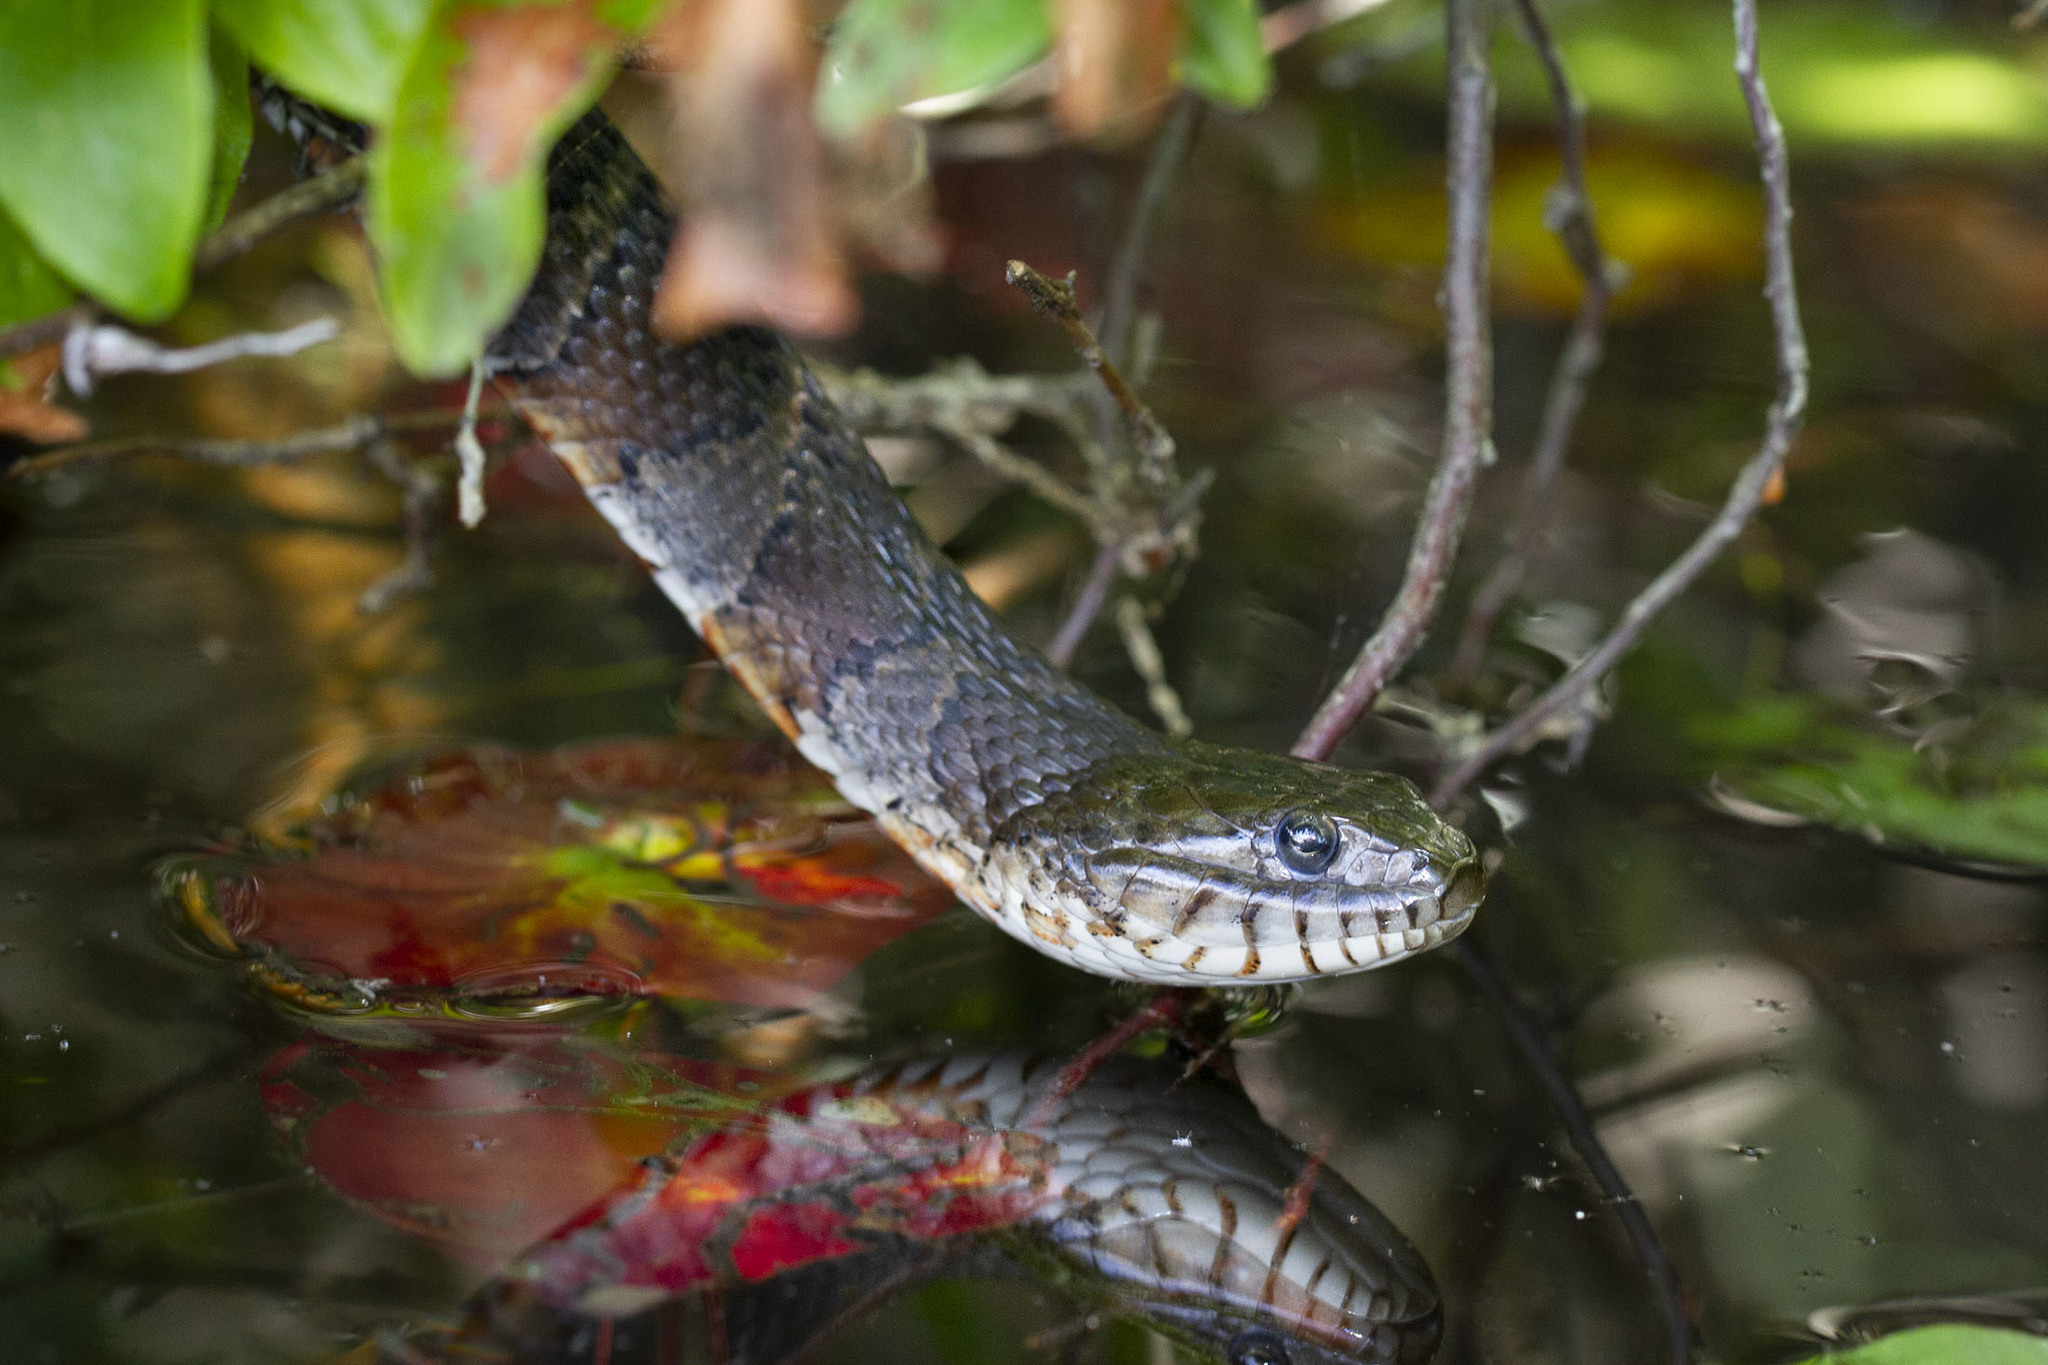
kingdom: Animalia
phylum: Chordata
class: Squamata
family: Colubridae
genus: Nerodia
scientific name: Nerodia sipedon
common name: Northern water snake
